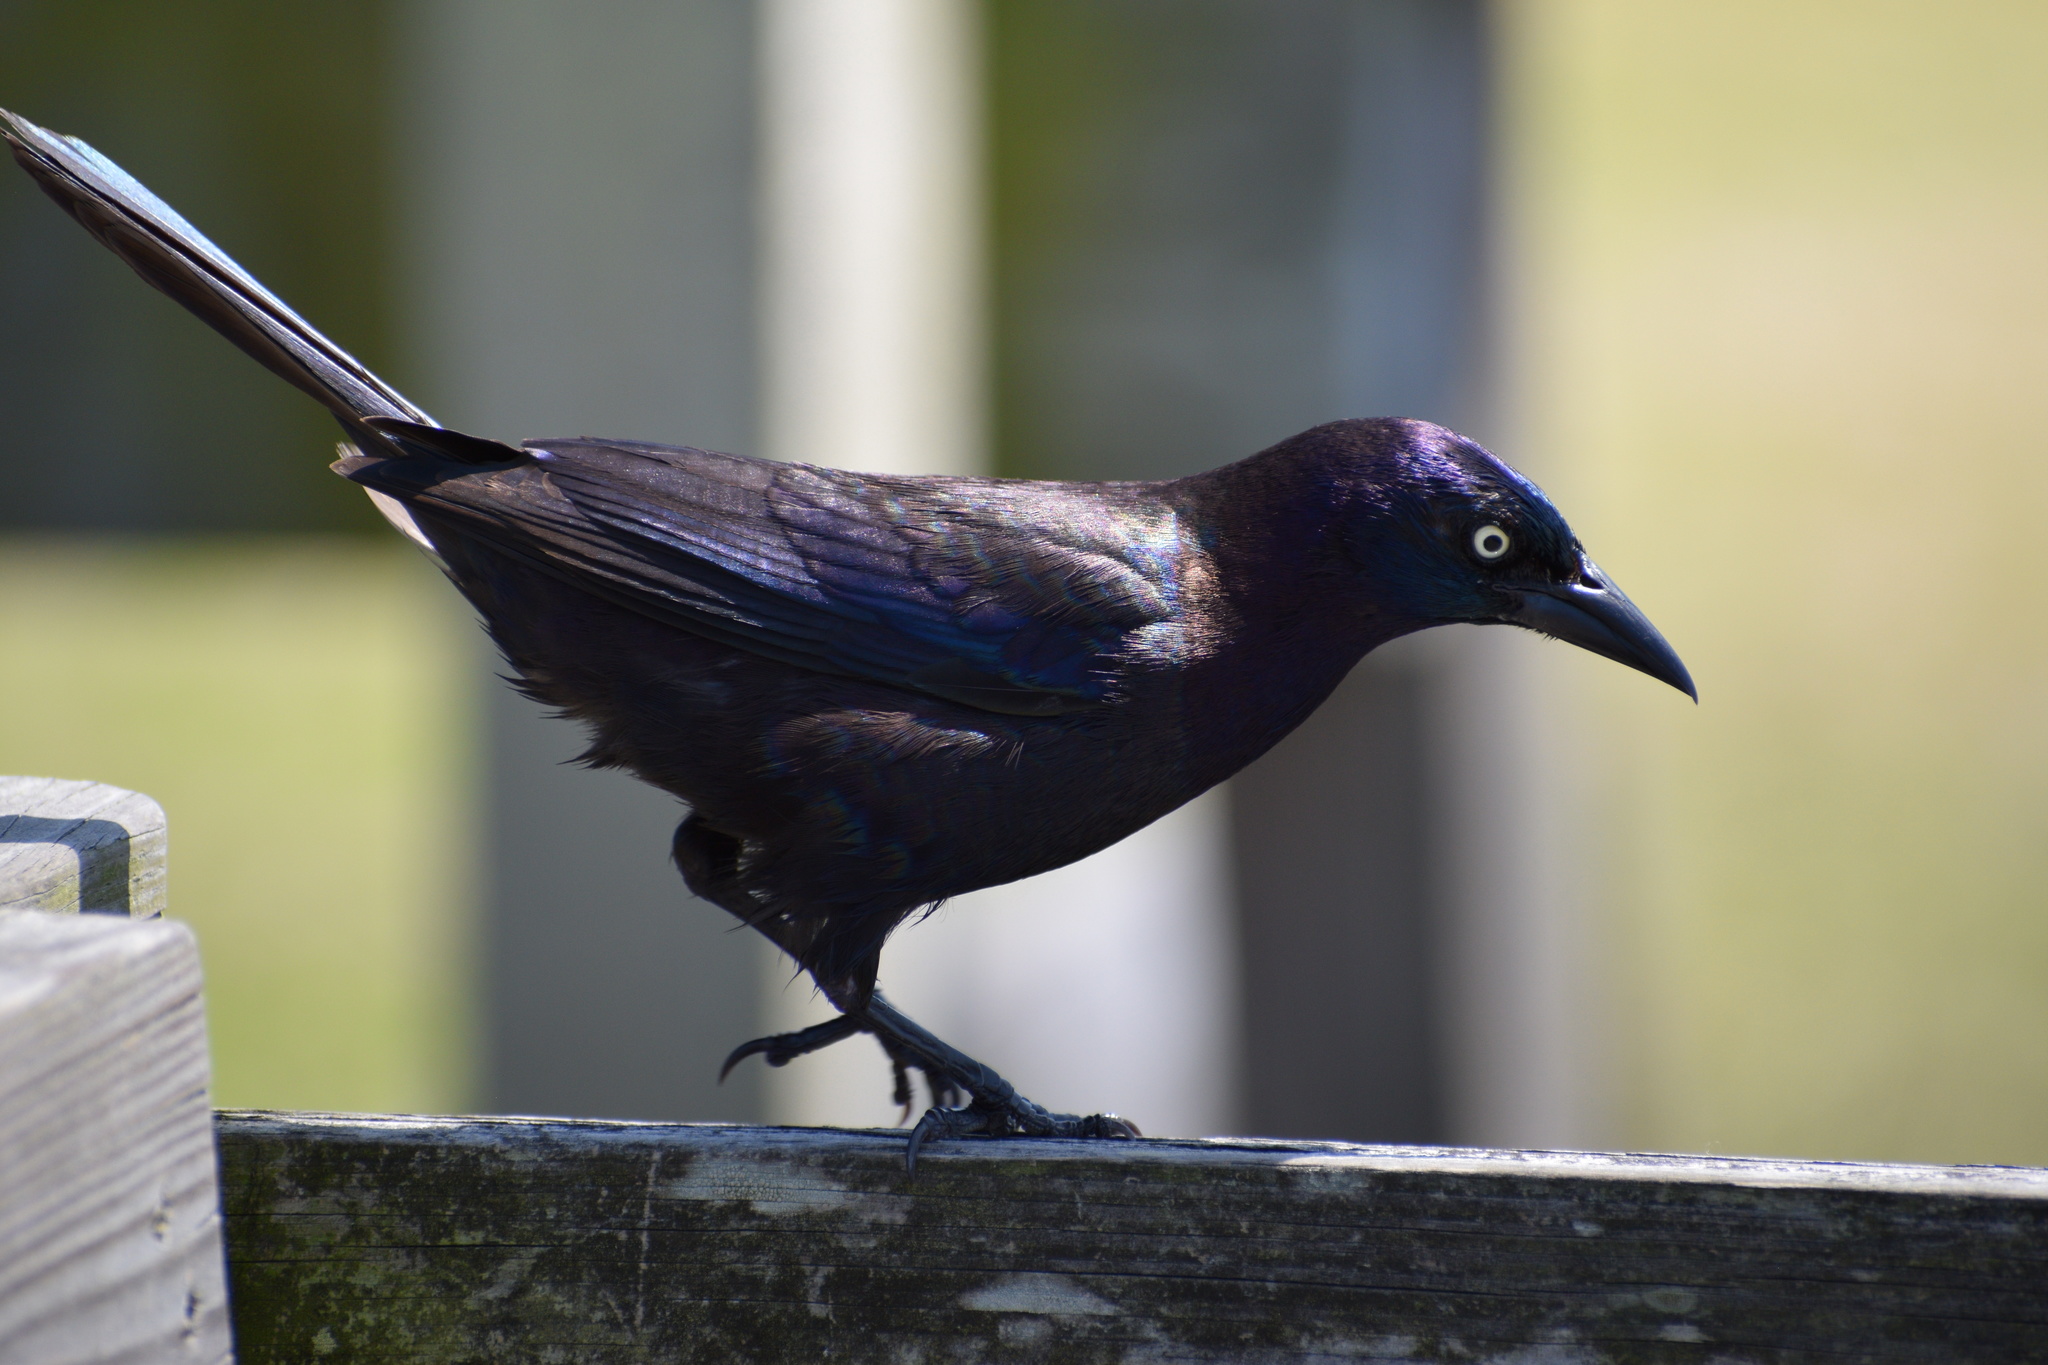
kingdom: Animalia
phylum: Chordata
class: Aves
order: Passeriformes
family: Icteridae
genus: Quiscalus
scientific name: Quiscalus quiscula
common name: Common grackle
